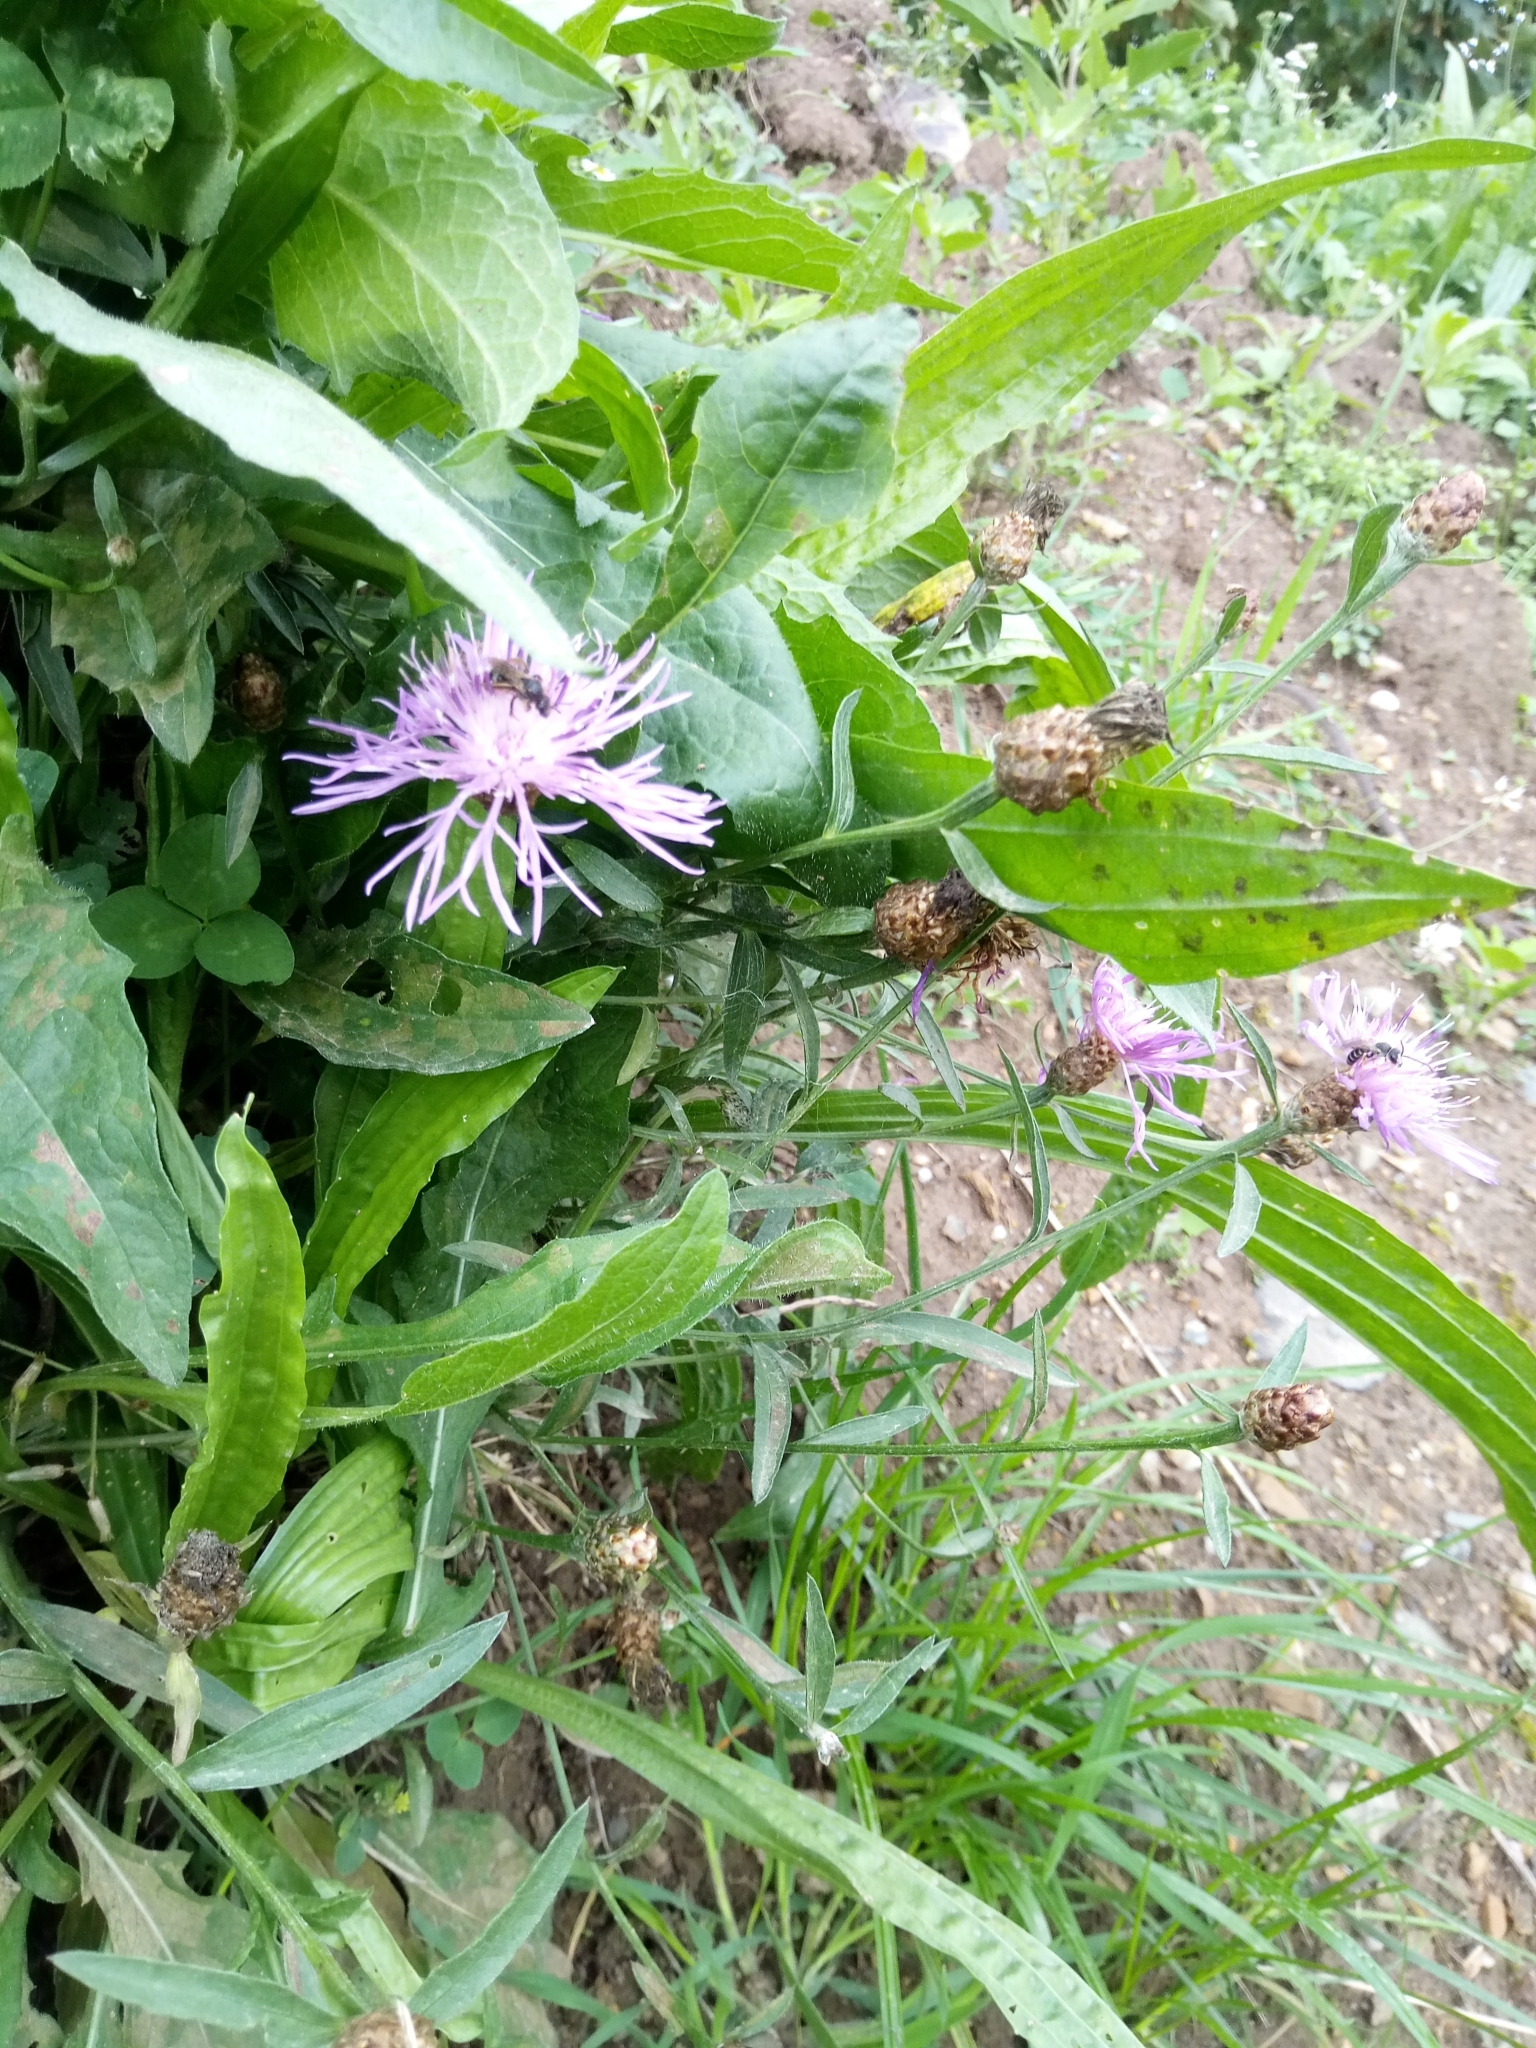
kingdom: Plantae
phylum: Tracheophyta
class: Magnoliopsida
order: Asterales
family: Asteraceae
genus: Centaurea
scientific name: Centaurea jacea
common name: Brown knapweed
